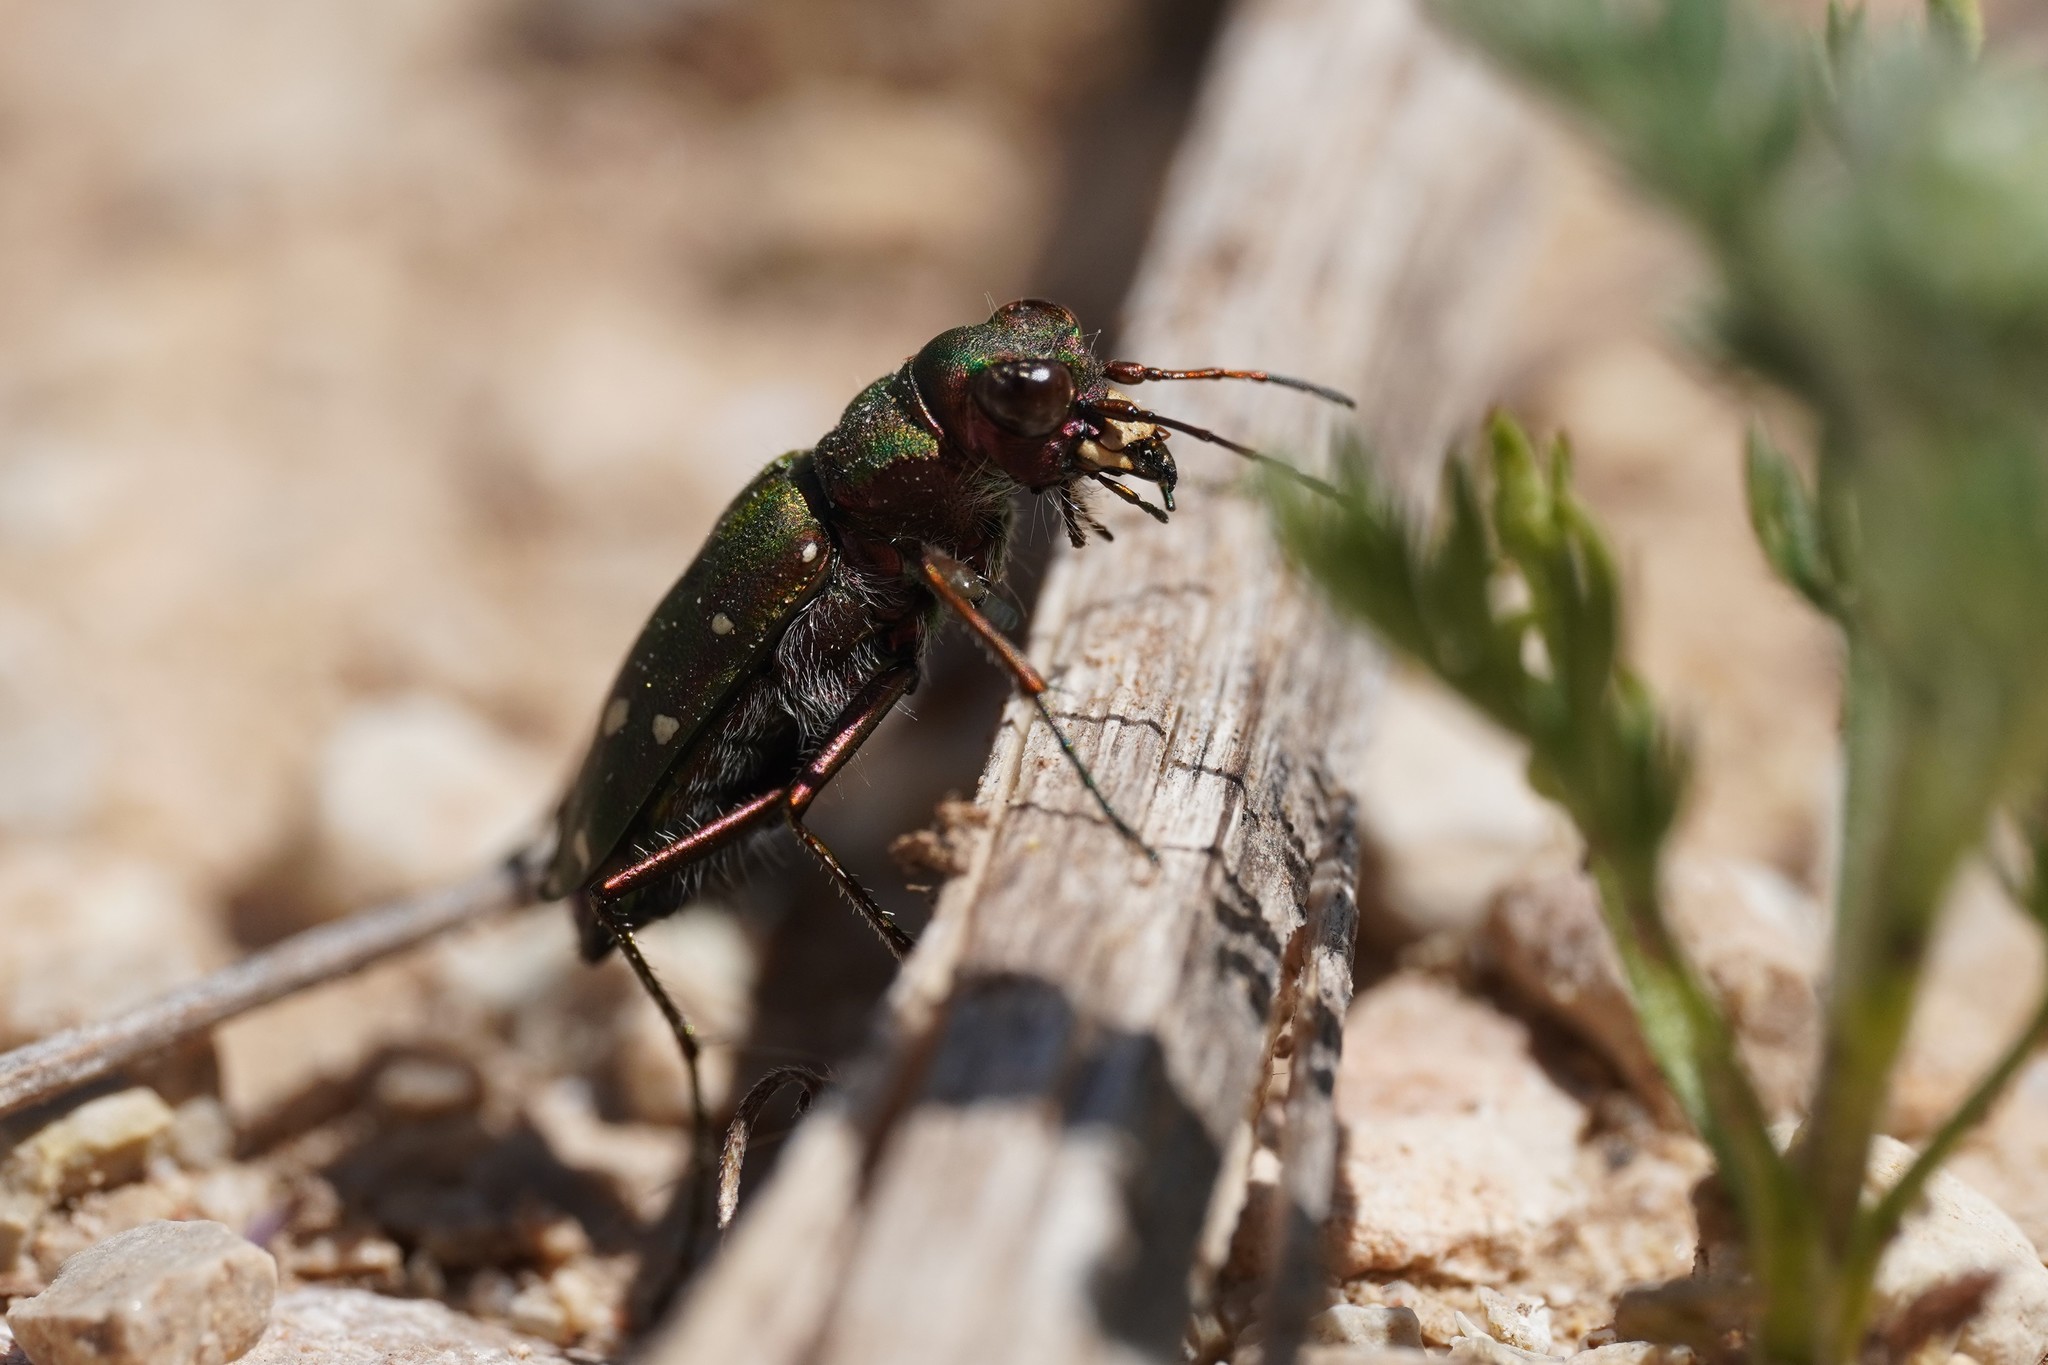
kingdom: Animalia
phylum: Arthropoda
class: Insecta
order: Coleoptera
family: Carabidae
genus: Cicindela
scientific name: Cicindela maroccana
